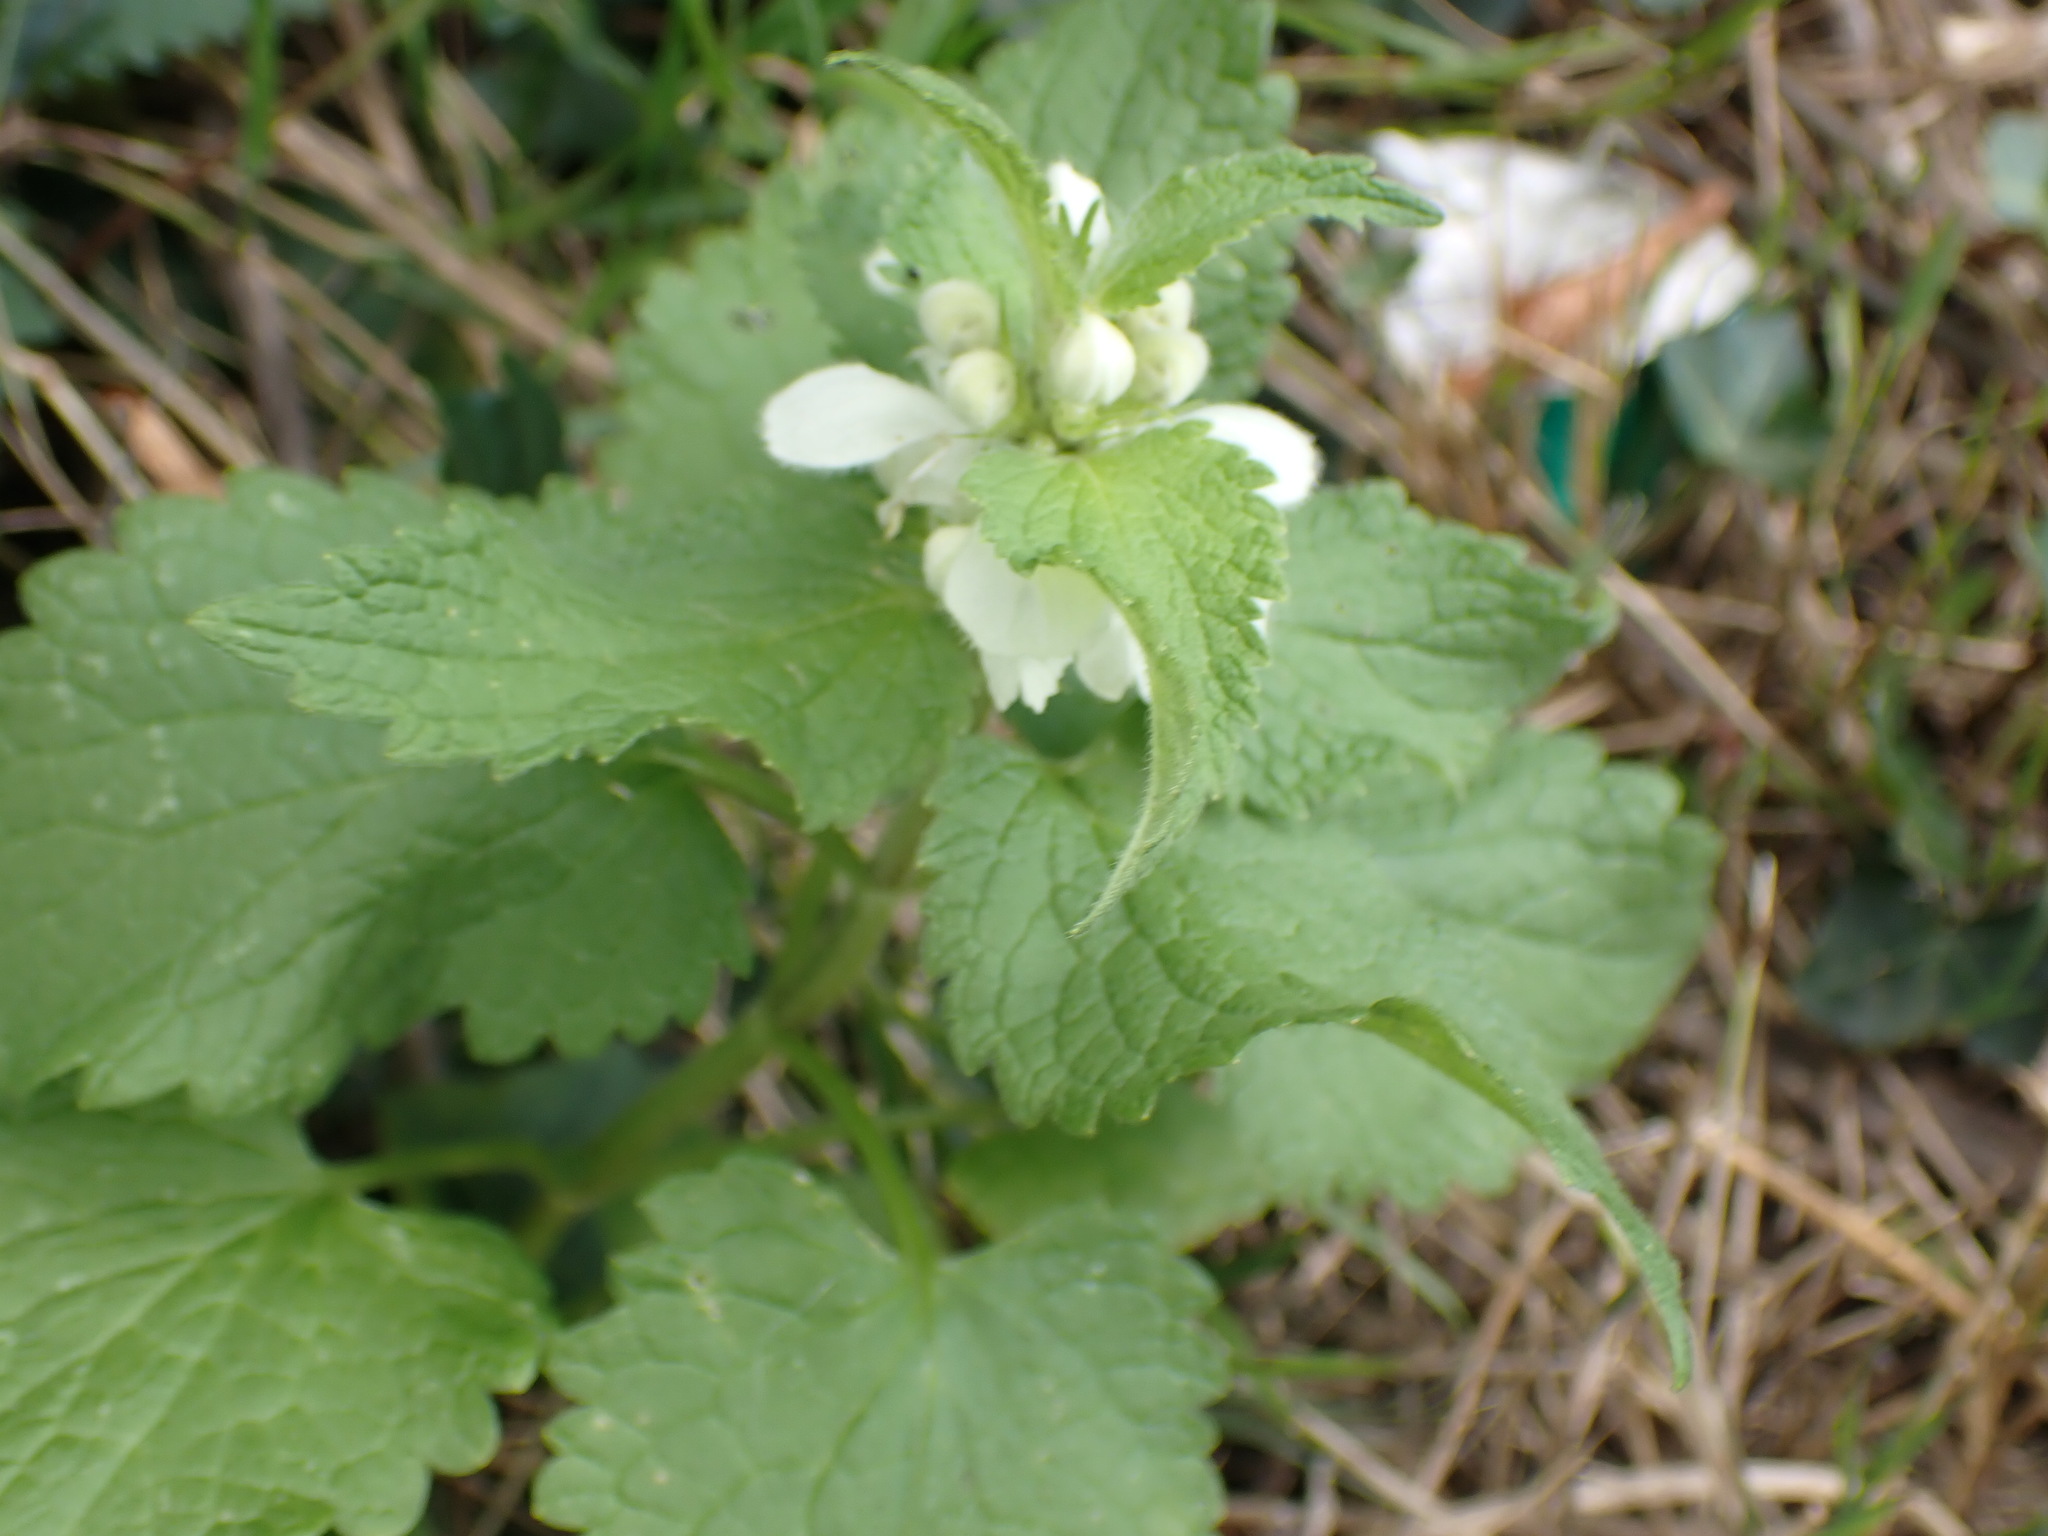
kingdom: Plantae
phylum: Tracheophyta
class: Magnoliopsida
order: Lamiales
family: Lamiaceae
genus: Lamium
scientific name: Lamium album
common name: White dead-nettle
